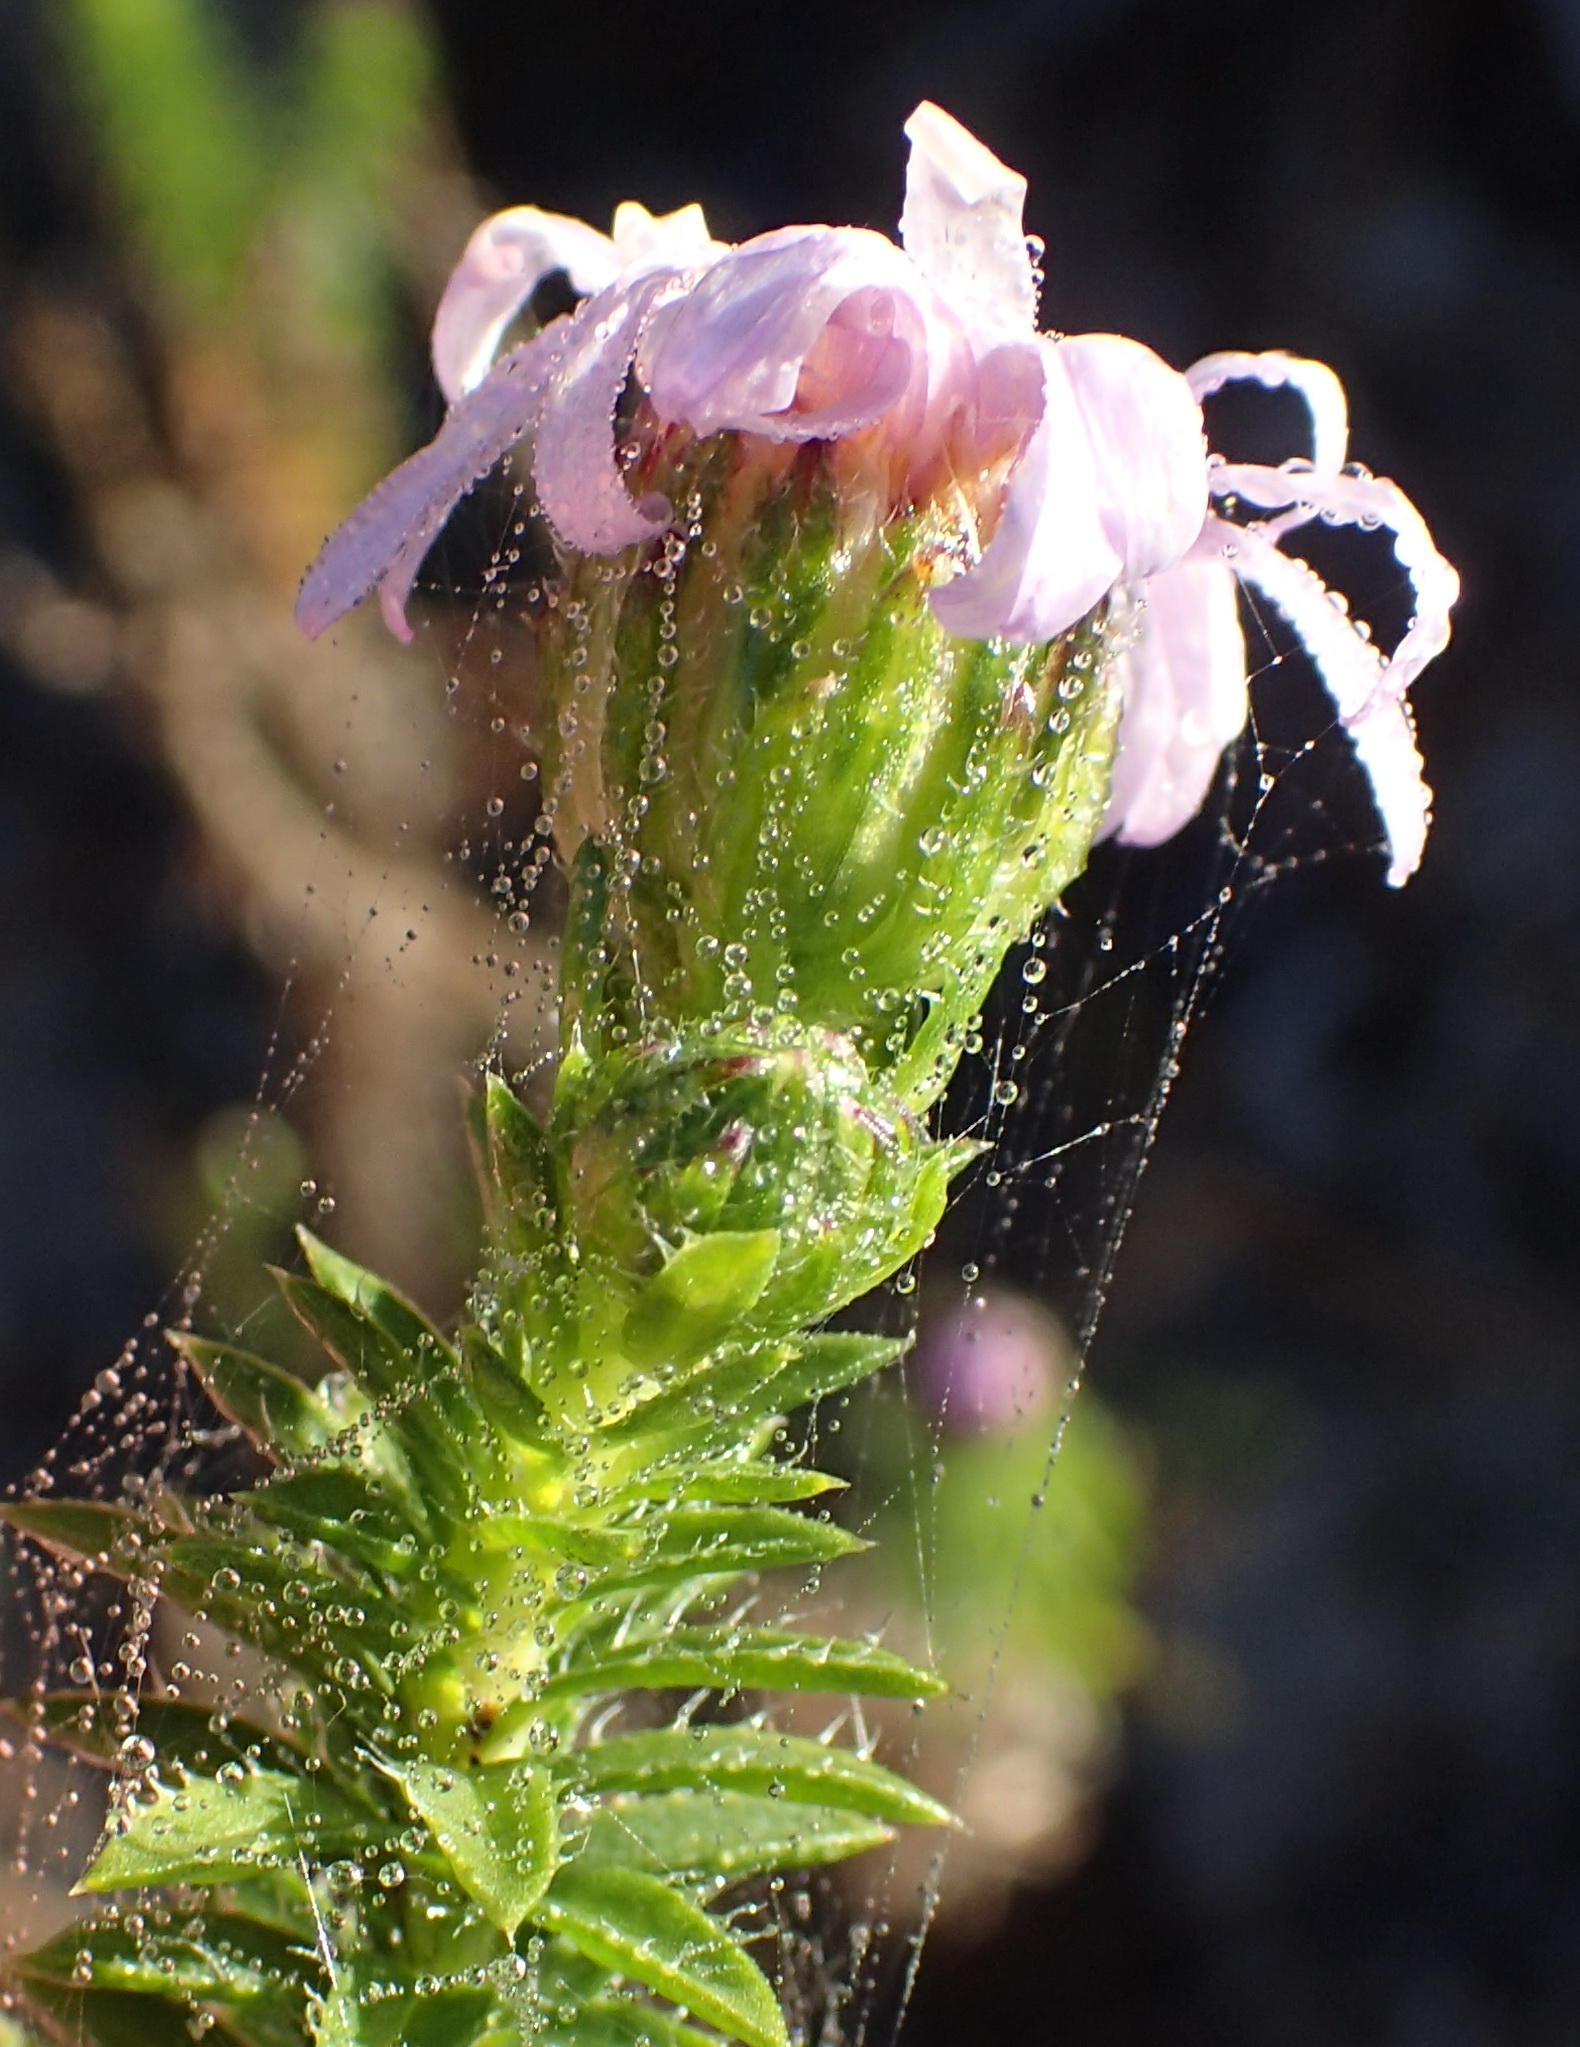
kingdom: Plantae
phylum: Tracheophyta
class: Magnoliopsida
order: Asterales
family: Asteraceae
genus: Felicia
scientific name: Felicia echinata
